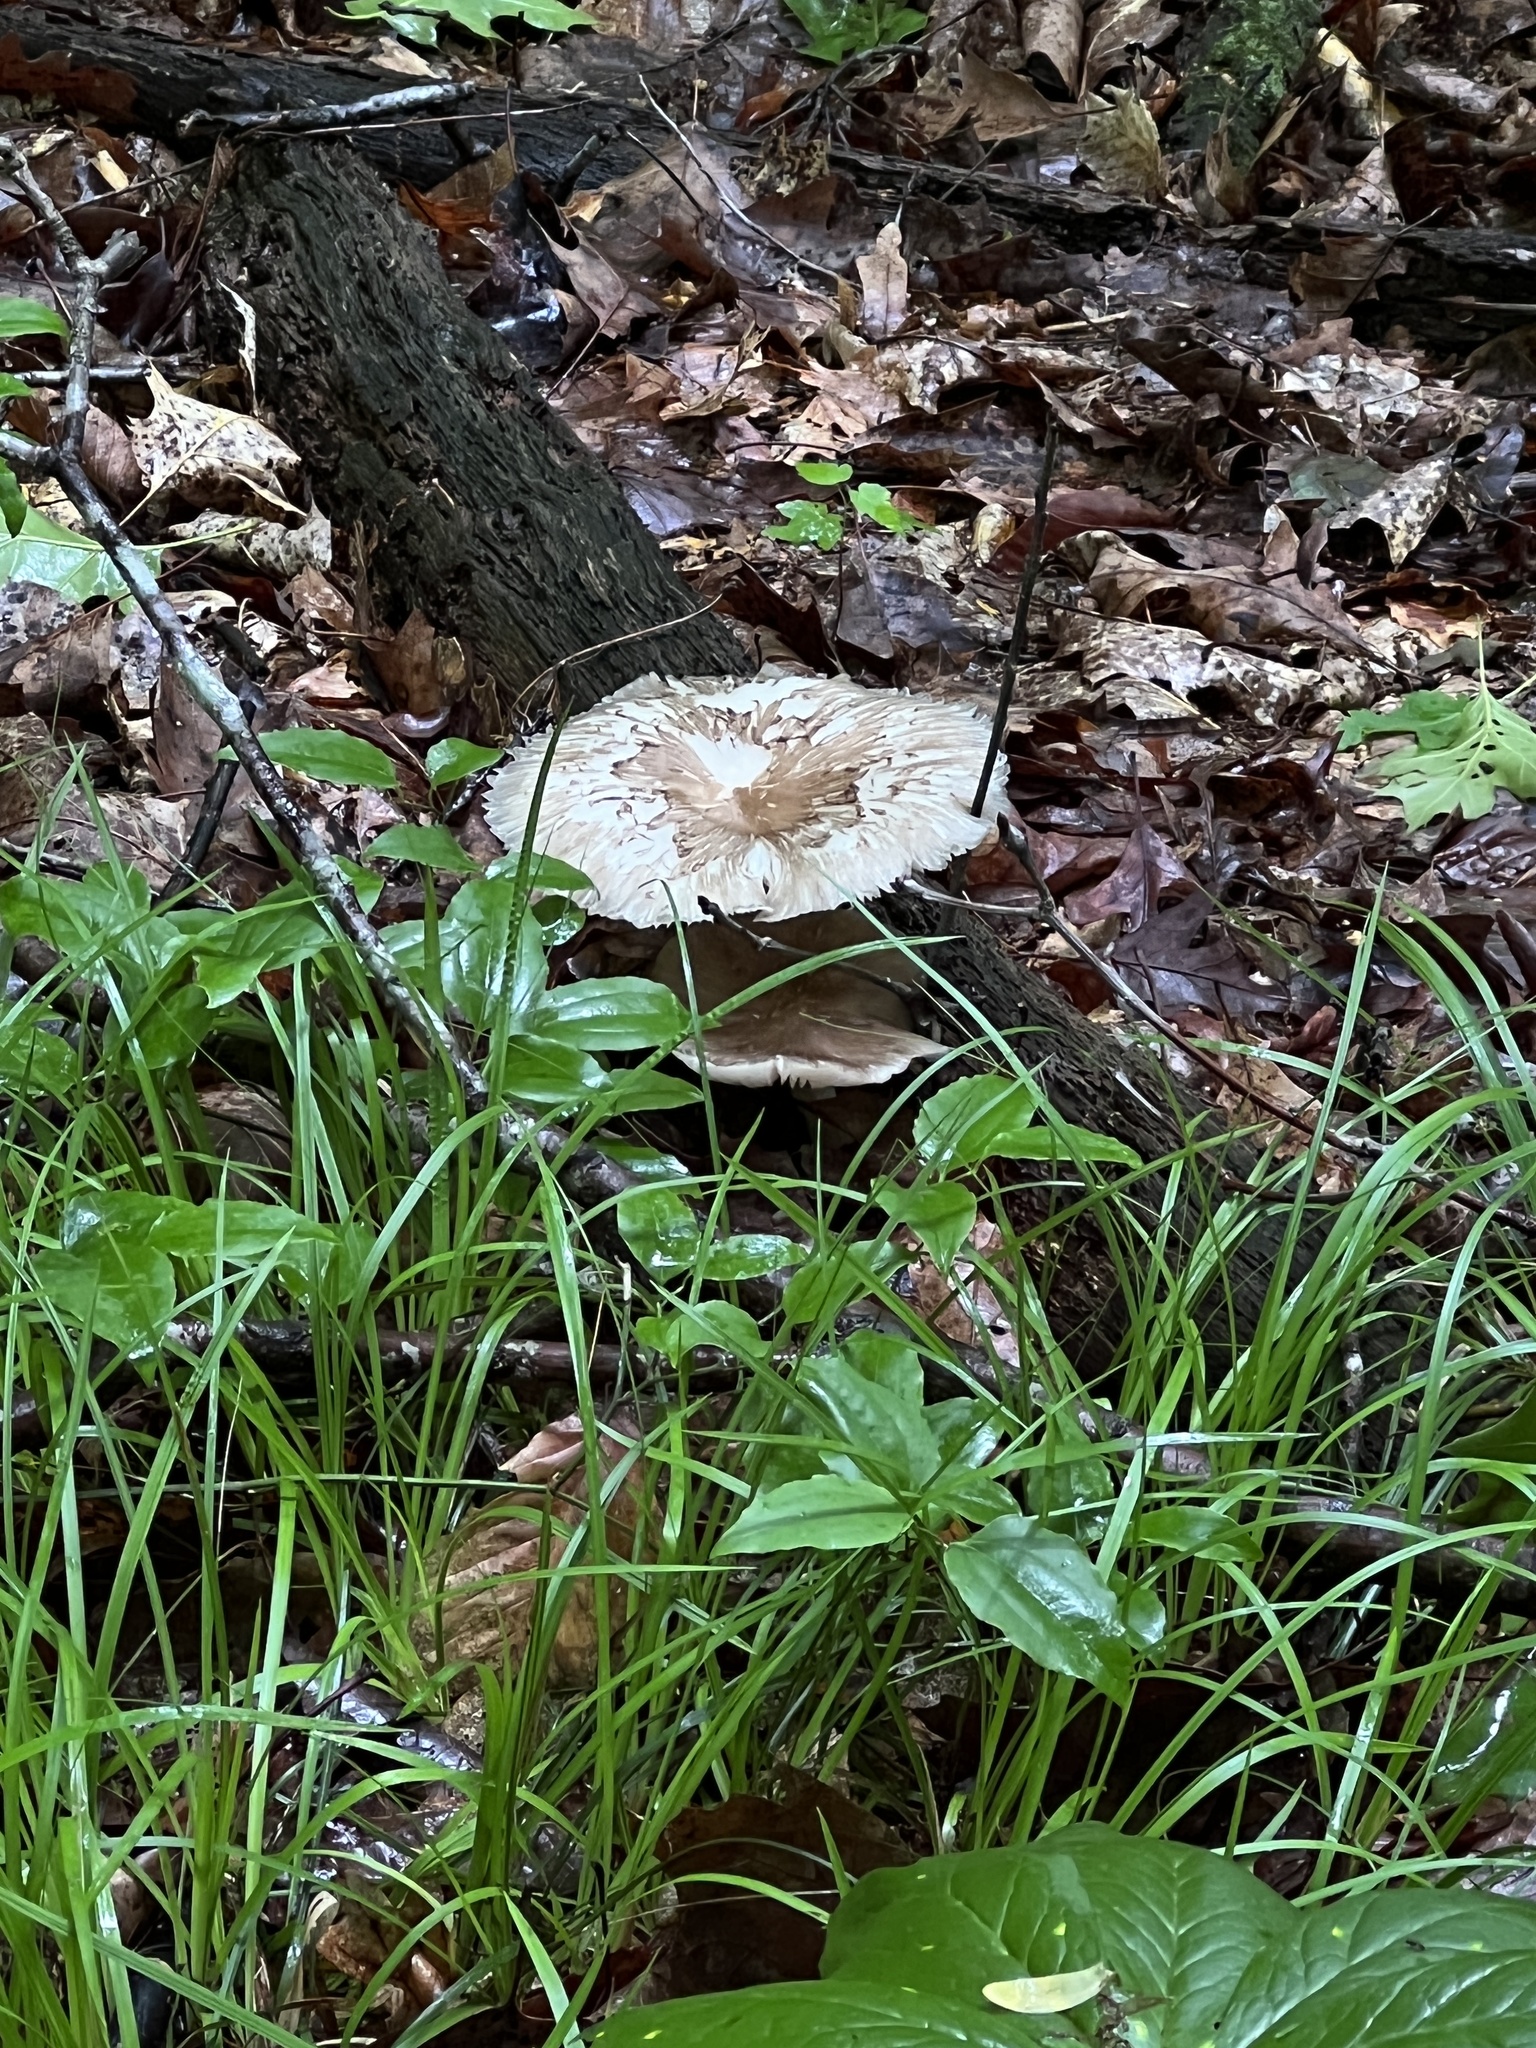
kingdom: Fungi
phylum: Basidiomycota
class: Agaricomycetes
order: Agaricales
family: Tricholomataceae
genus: Megacollybia
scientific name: Megacollybia rodmanii
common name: Eastern american platterful mushroom
